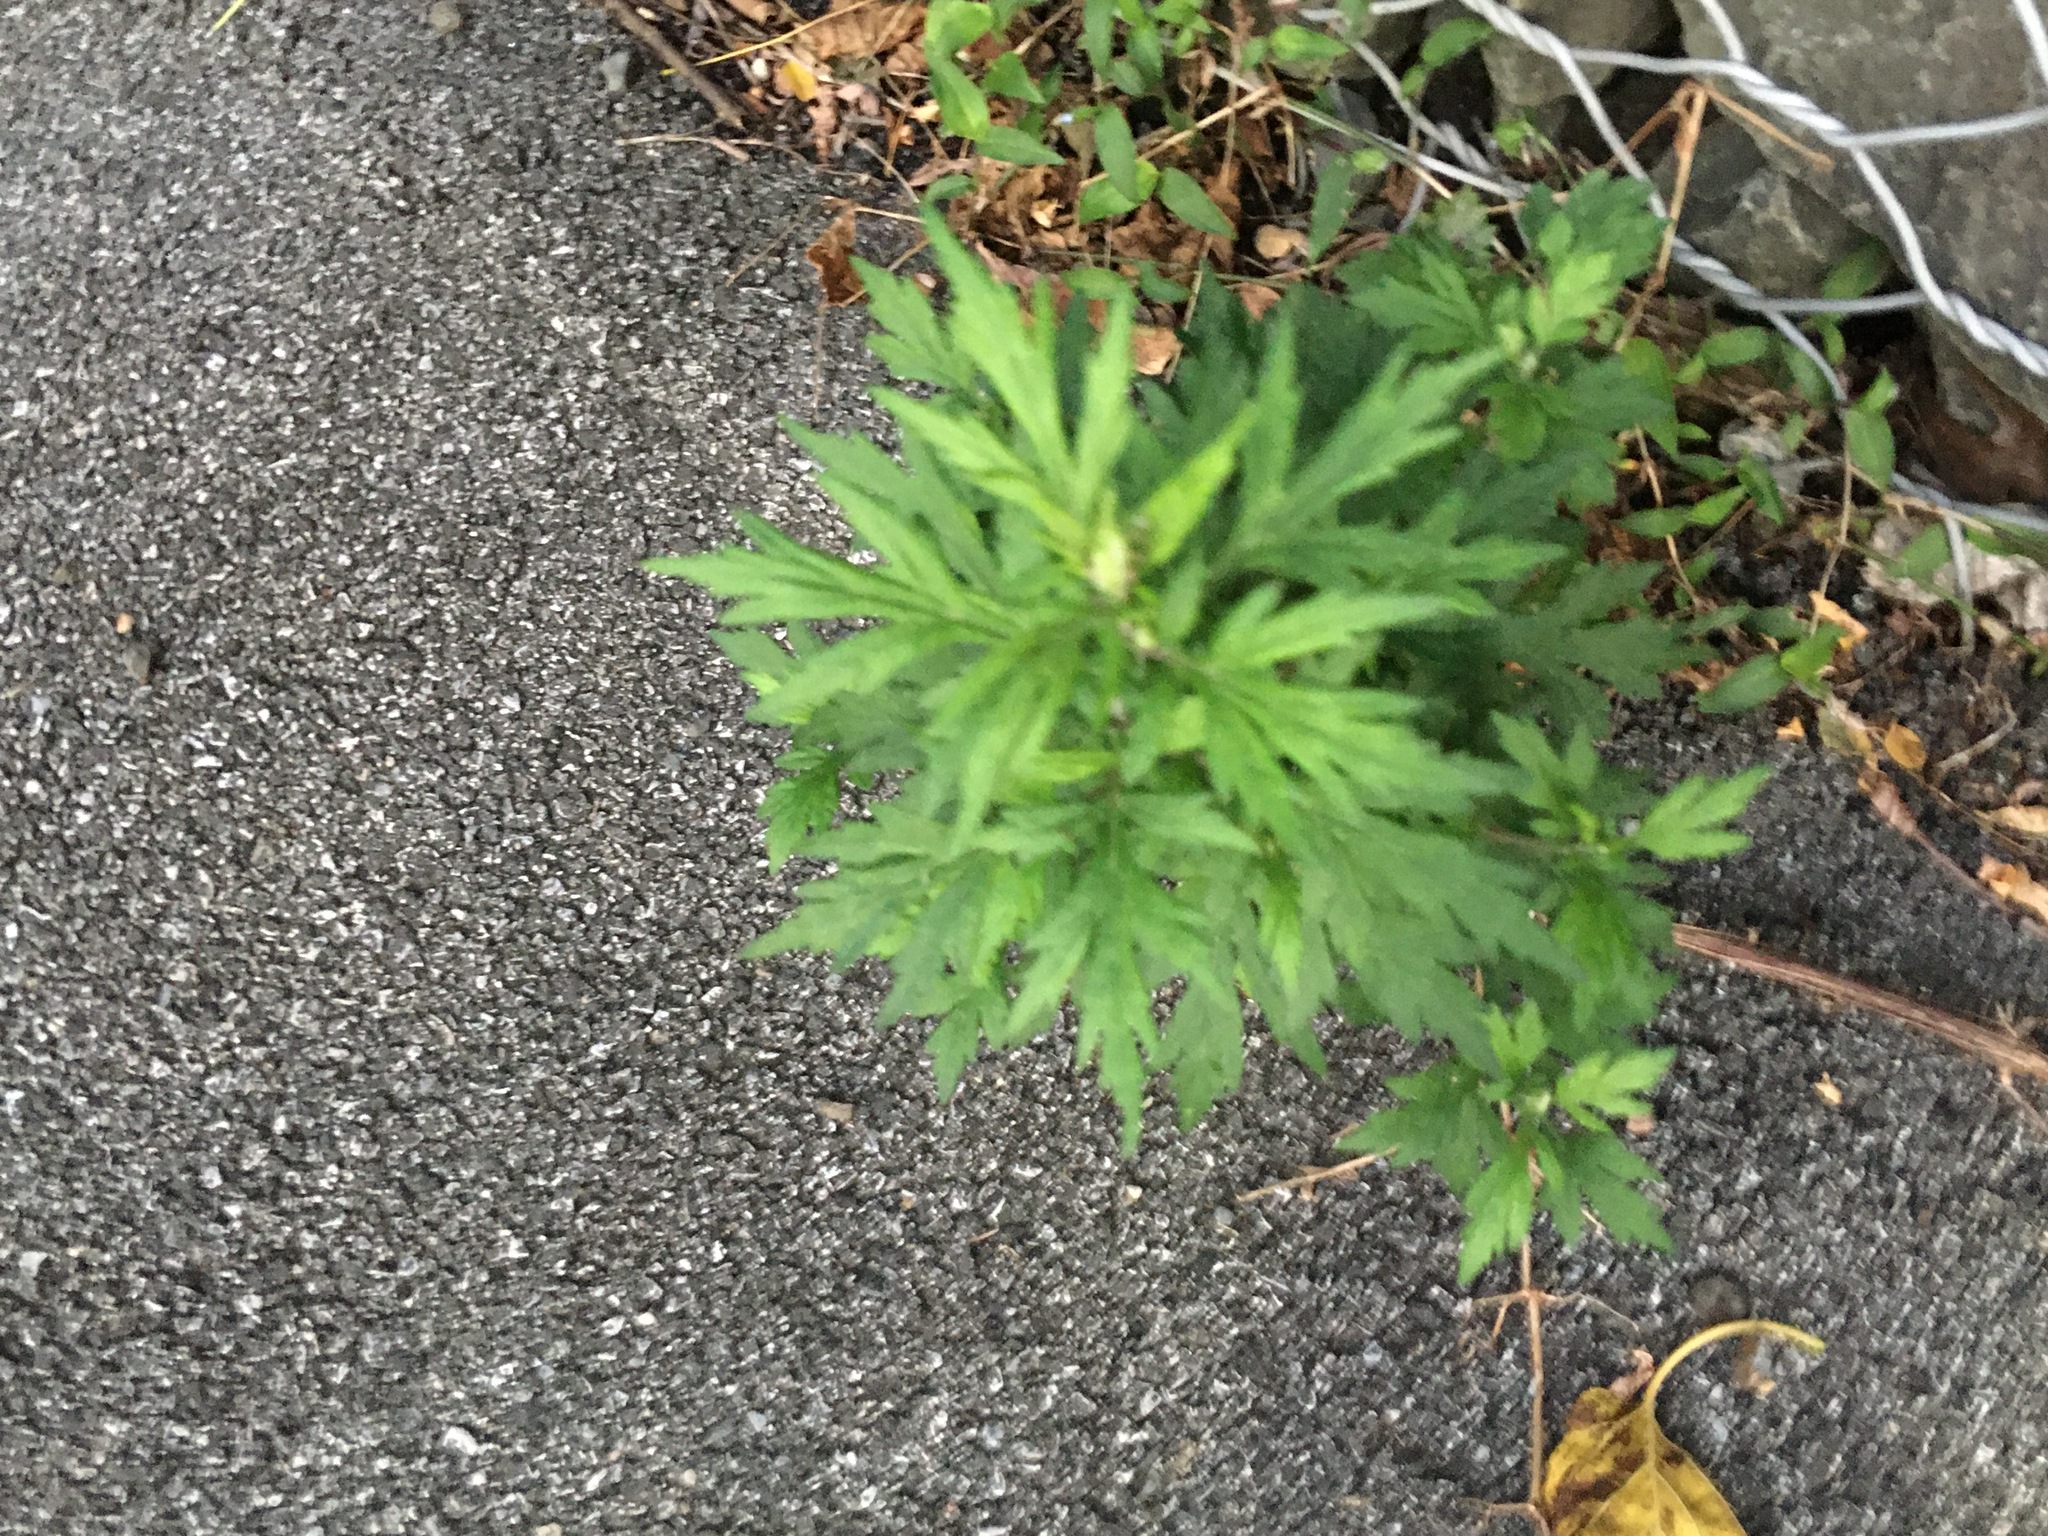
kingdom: Plantae
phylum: Tracheophyta
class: Magnoliopsida
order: Asterales
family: Asteraceae
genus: Artemisia
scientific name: Artemisia vulgaris
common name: Mugwort
